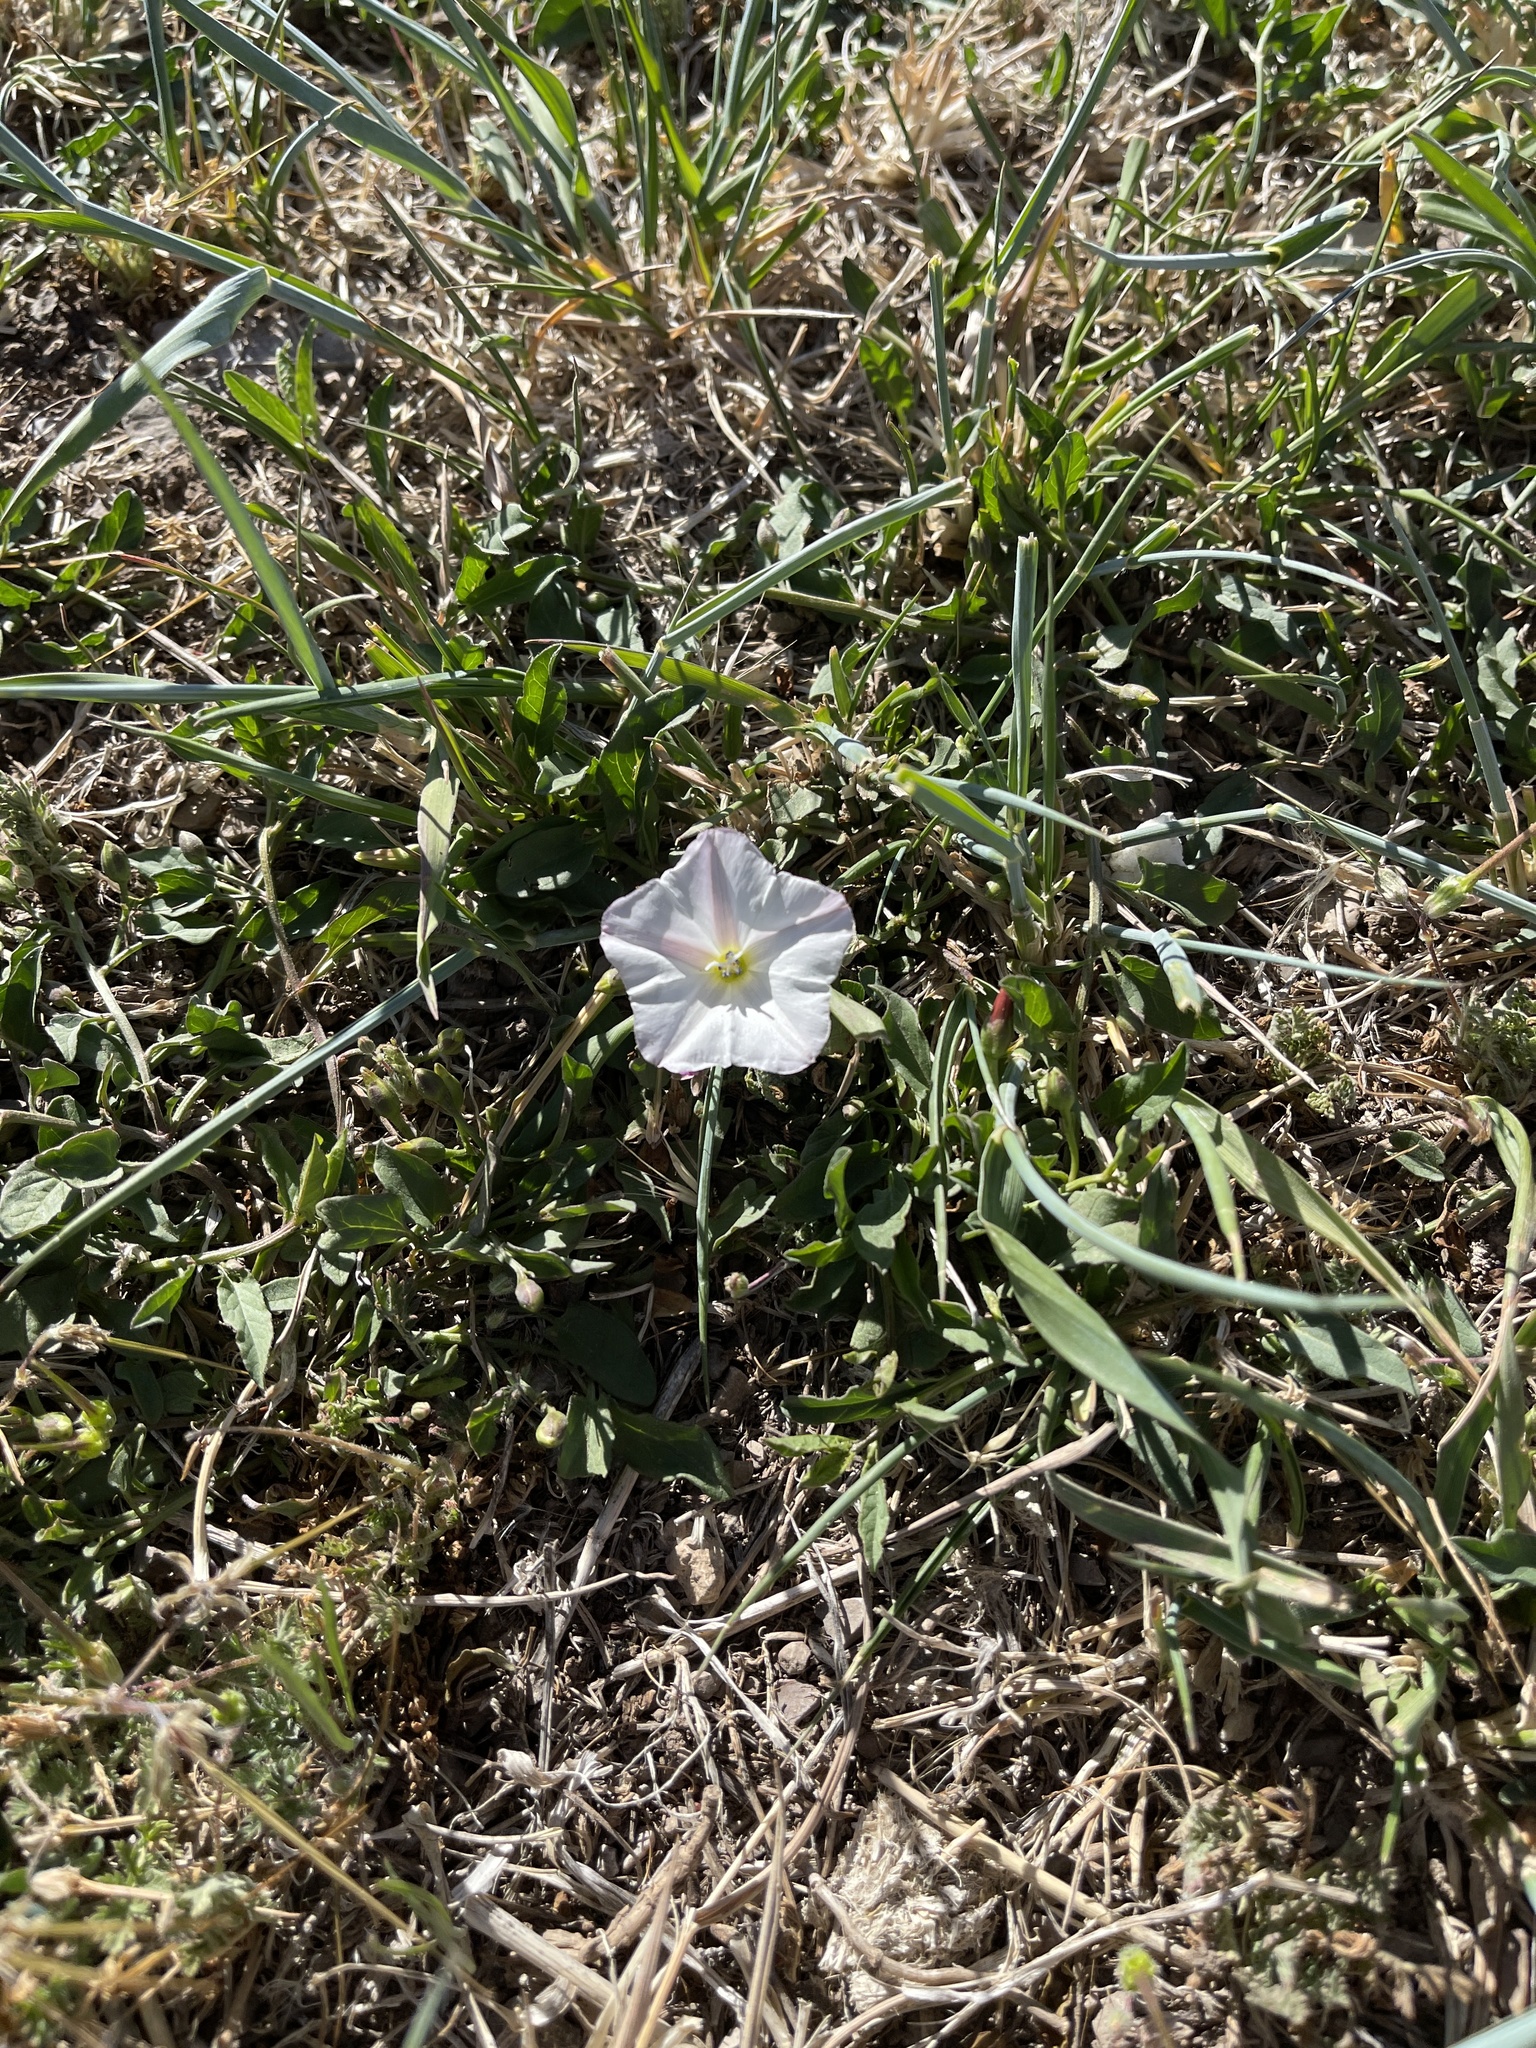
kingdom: Plantae
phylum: Tracheophyta
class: Magnoliopsida
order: Solanales
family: Convolvulaceae
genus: Convolvulus
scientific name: Convolvulus arvensis
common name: Field bindweed
